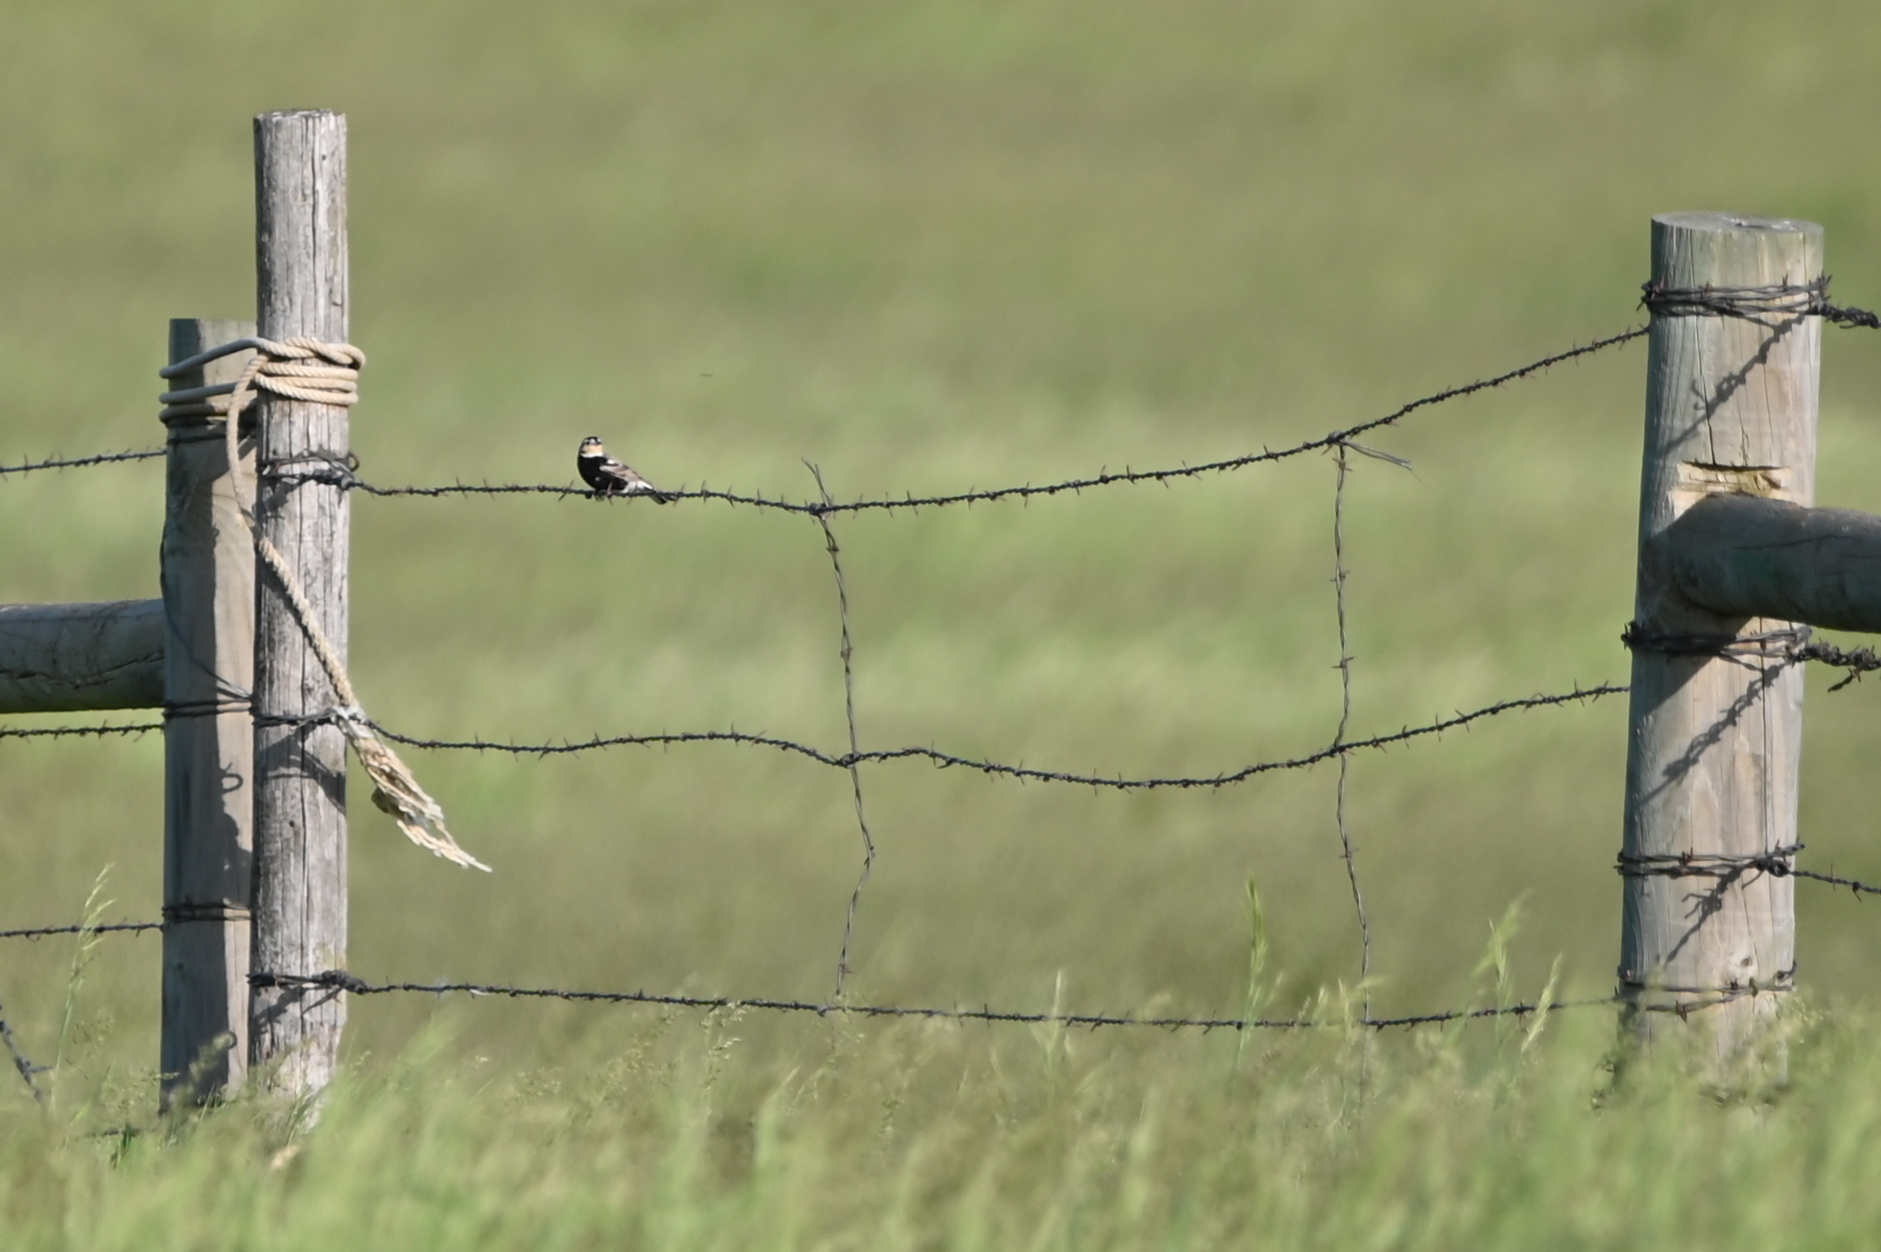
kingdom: Animalia
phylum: Chordata
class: Aves
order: Passeriformes
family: Calcariidae
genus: Calcarius
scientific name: Calcarius ornatus
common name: Chestnut-collared longspur
